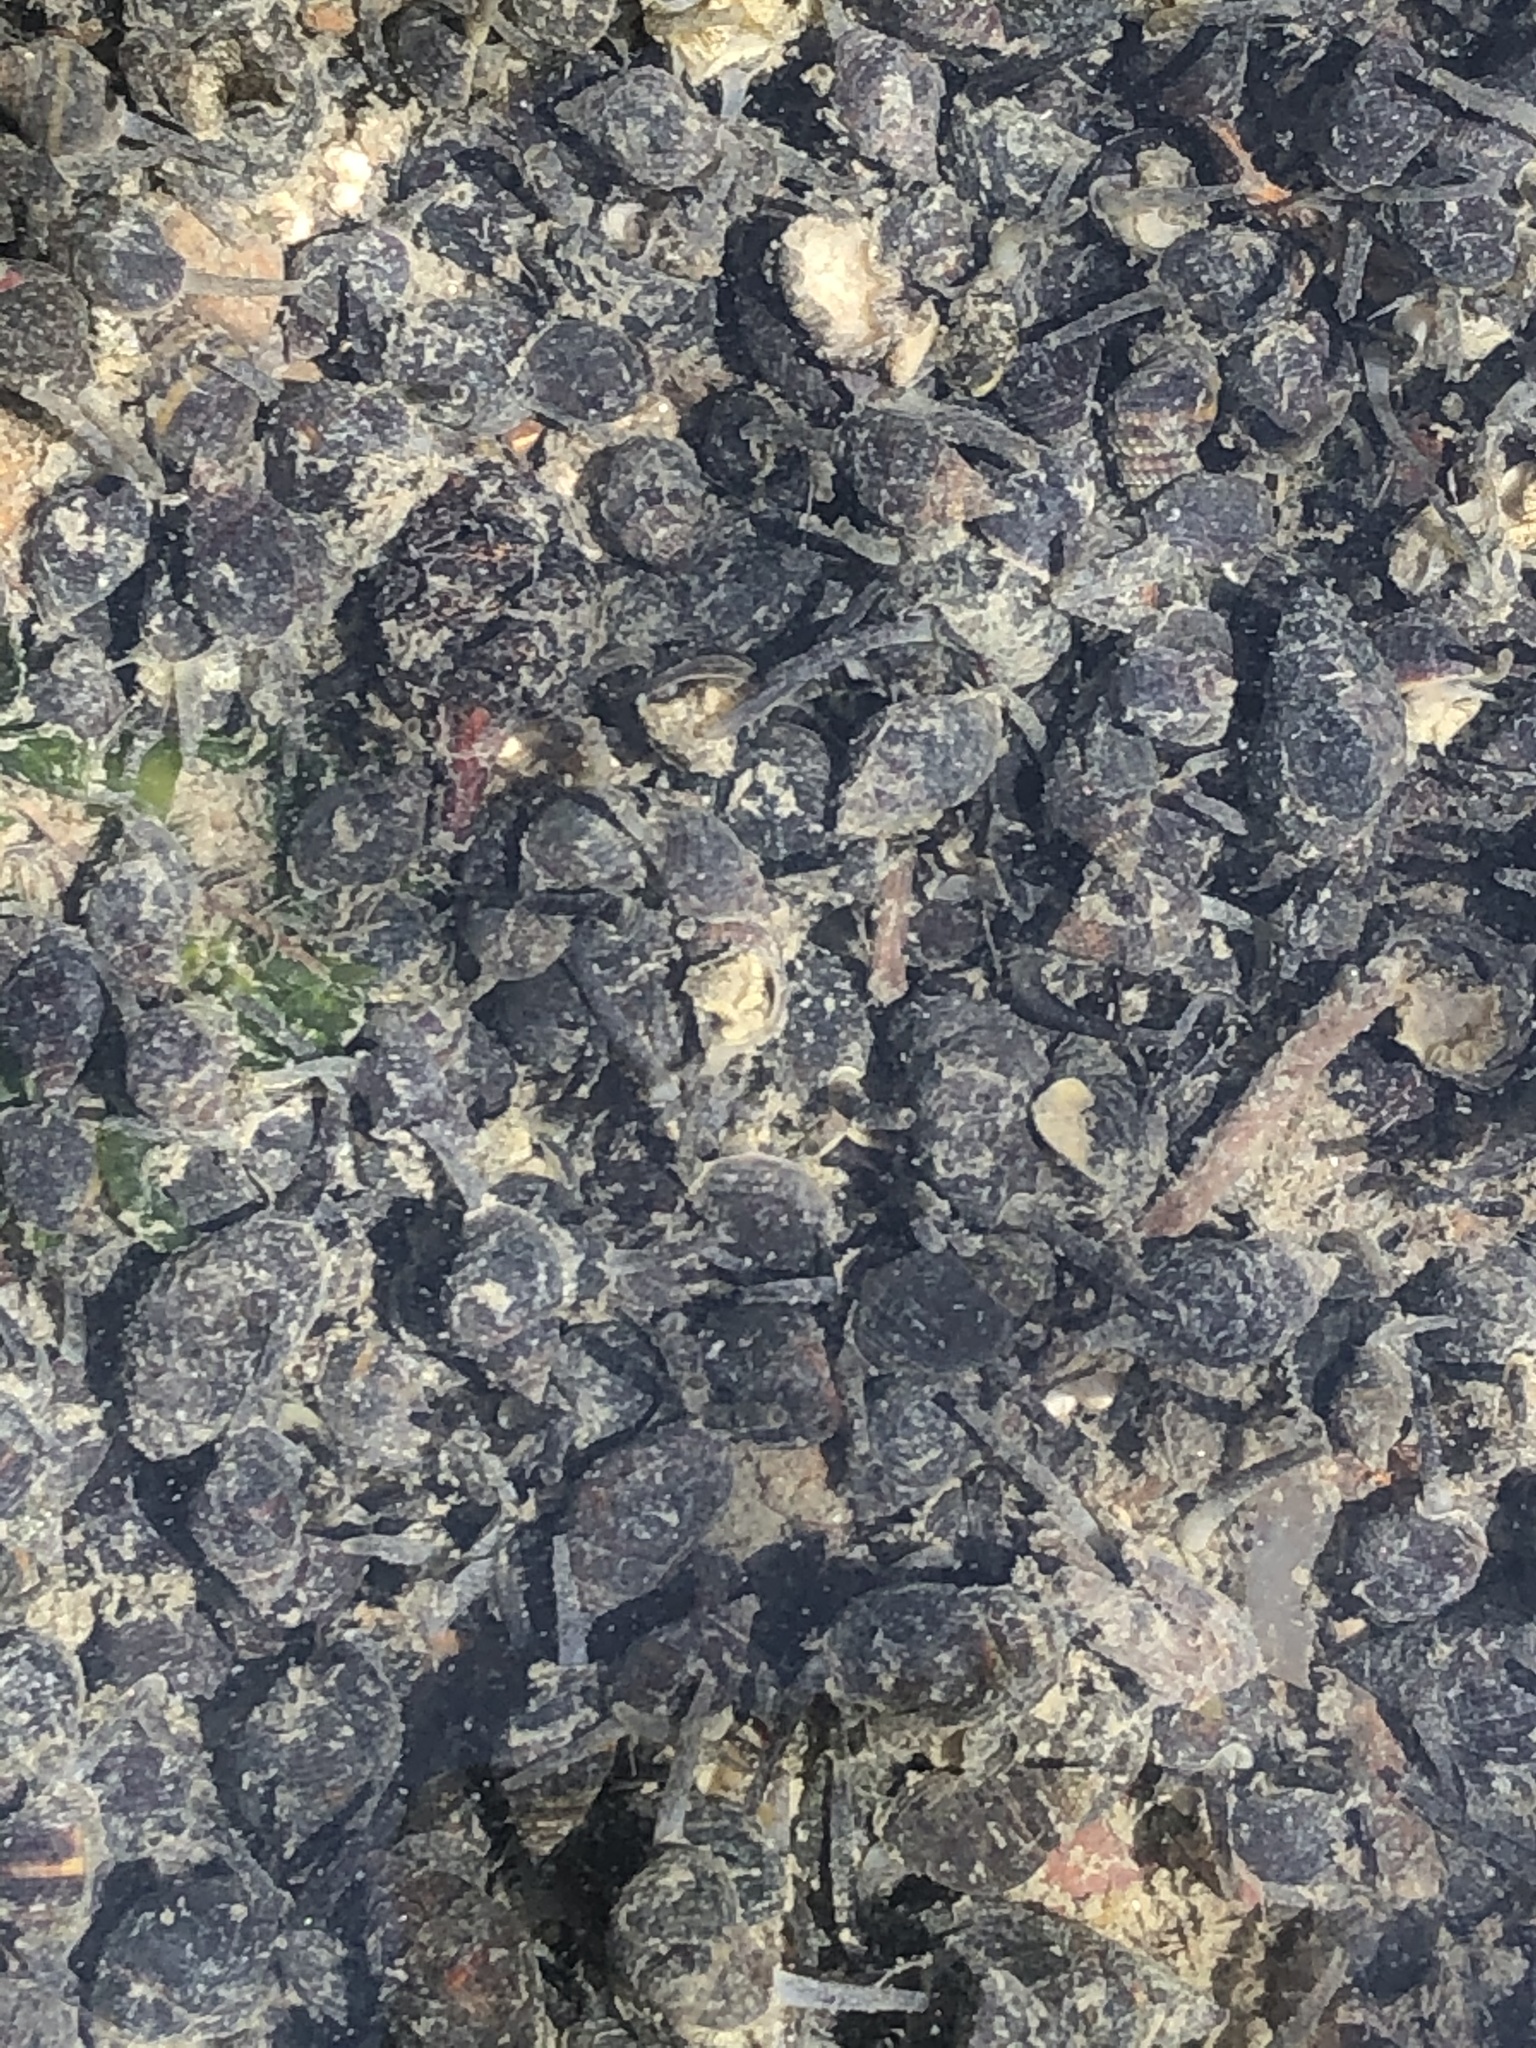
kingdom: Animalia
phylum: Mollusca
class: Gastropoda
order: Neogastropoda
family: Nassariidae
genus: Ilyanassa
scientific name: Ilyanassa obsoleta
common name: Eastern mudsnail
